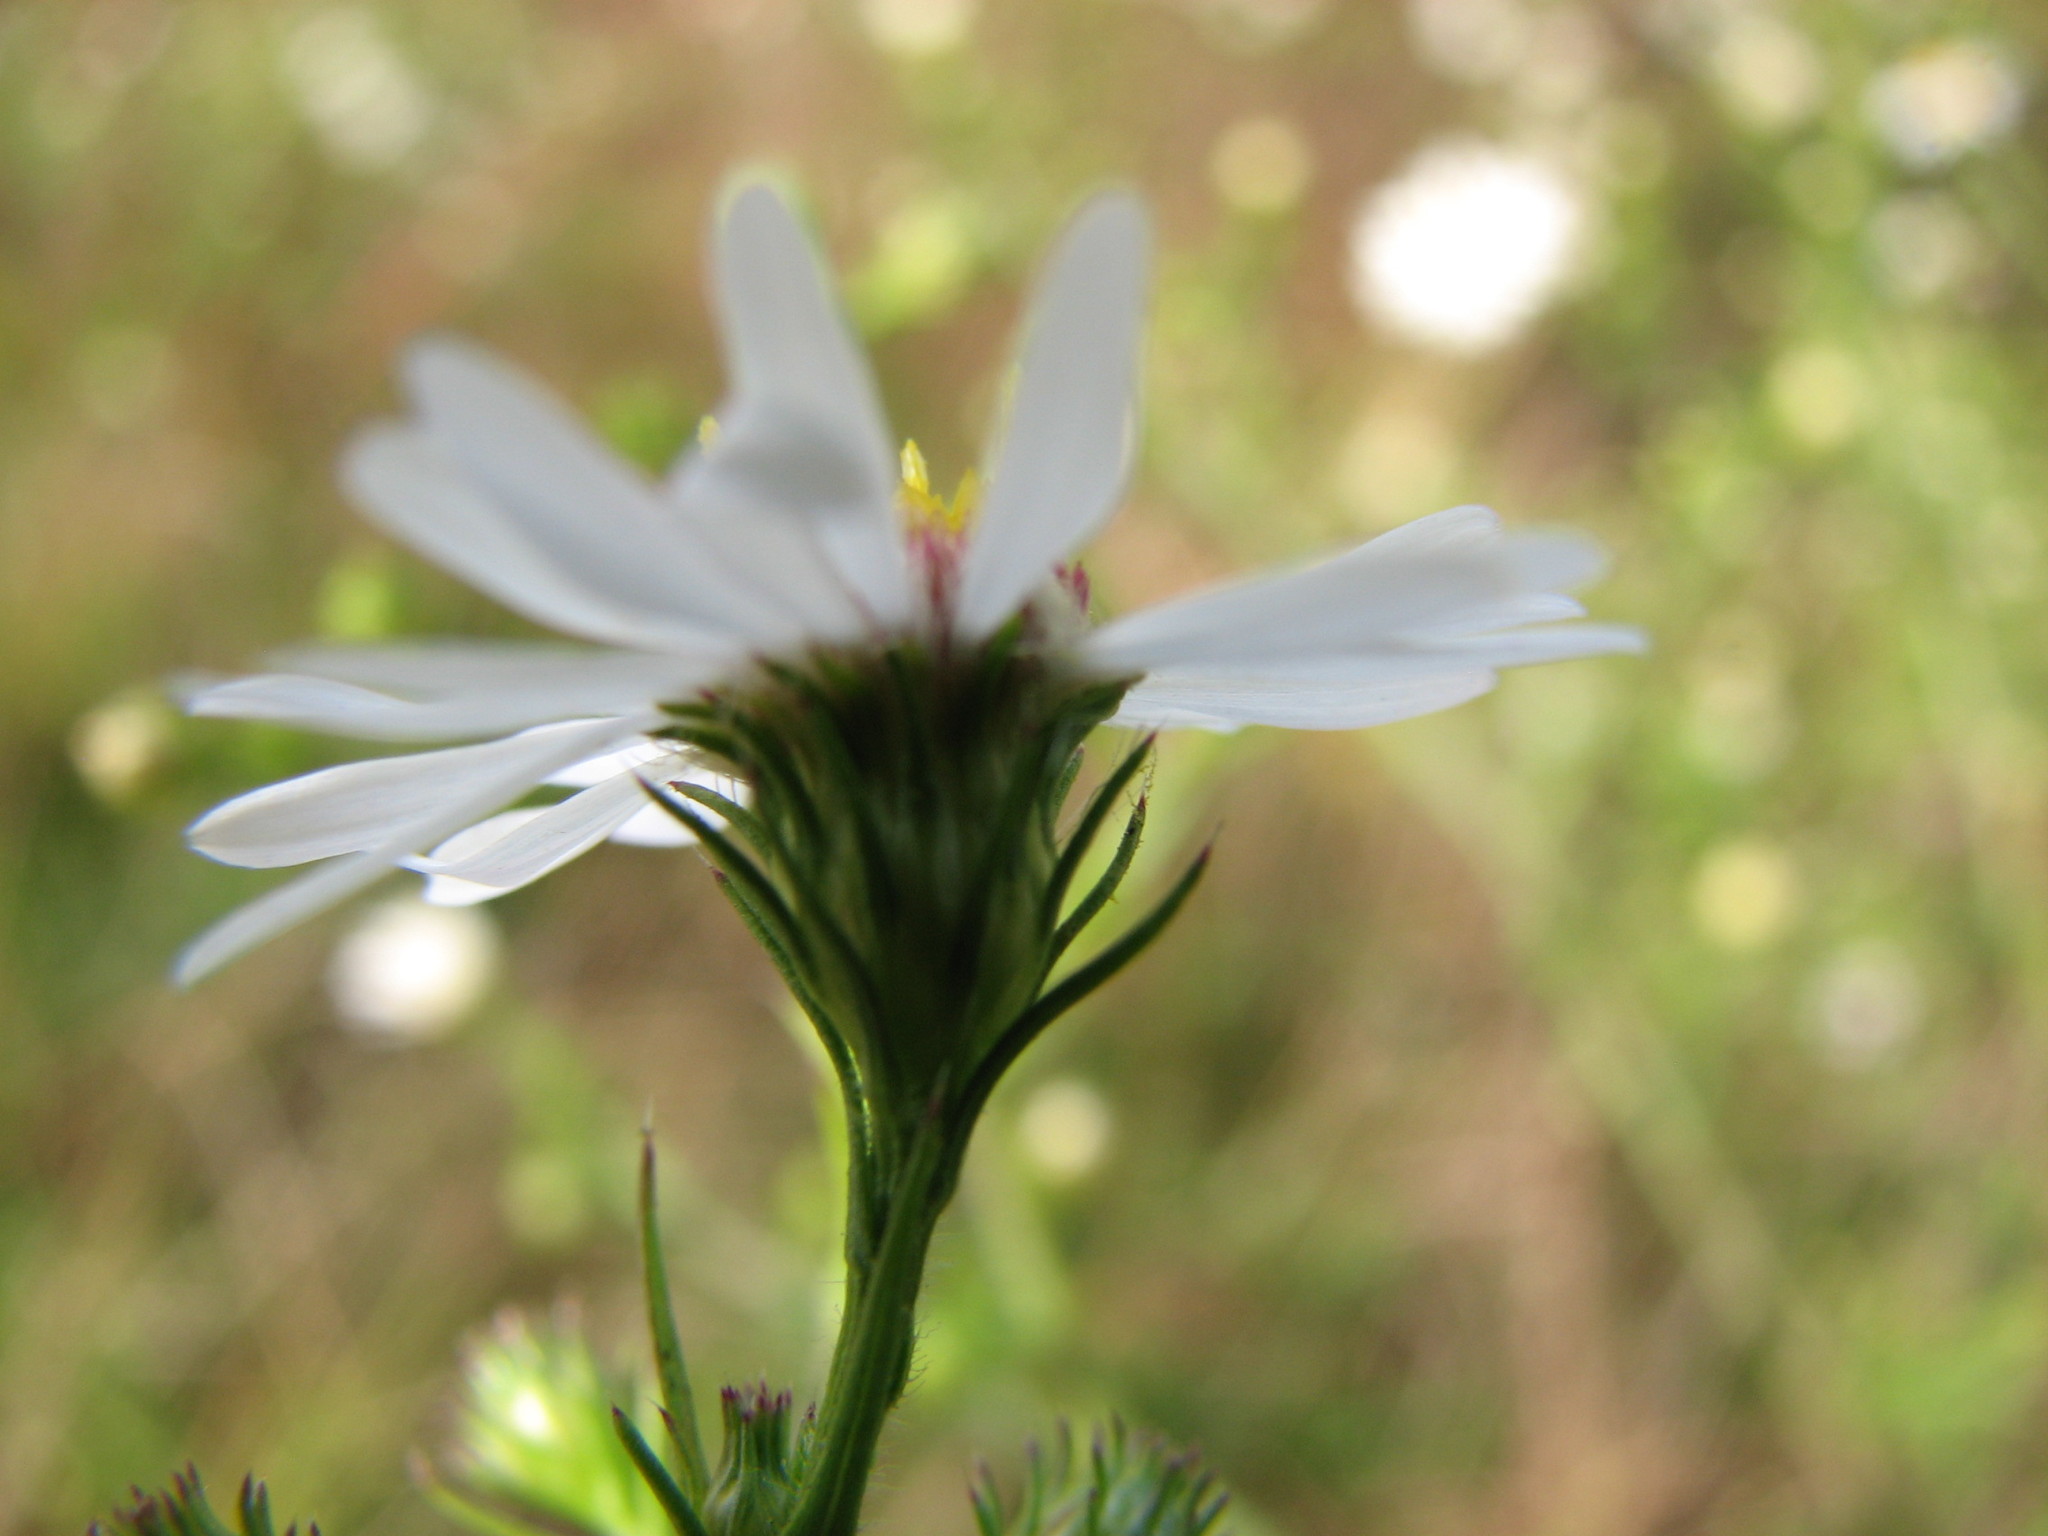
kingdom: Plantae
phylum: Tracheophyta
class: Magnoliopsida
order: Asterales
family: Asteraceae
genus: Symphyotrichum
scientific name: Symphyotrichum pilosum
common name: Awl aster
